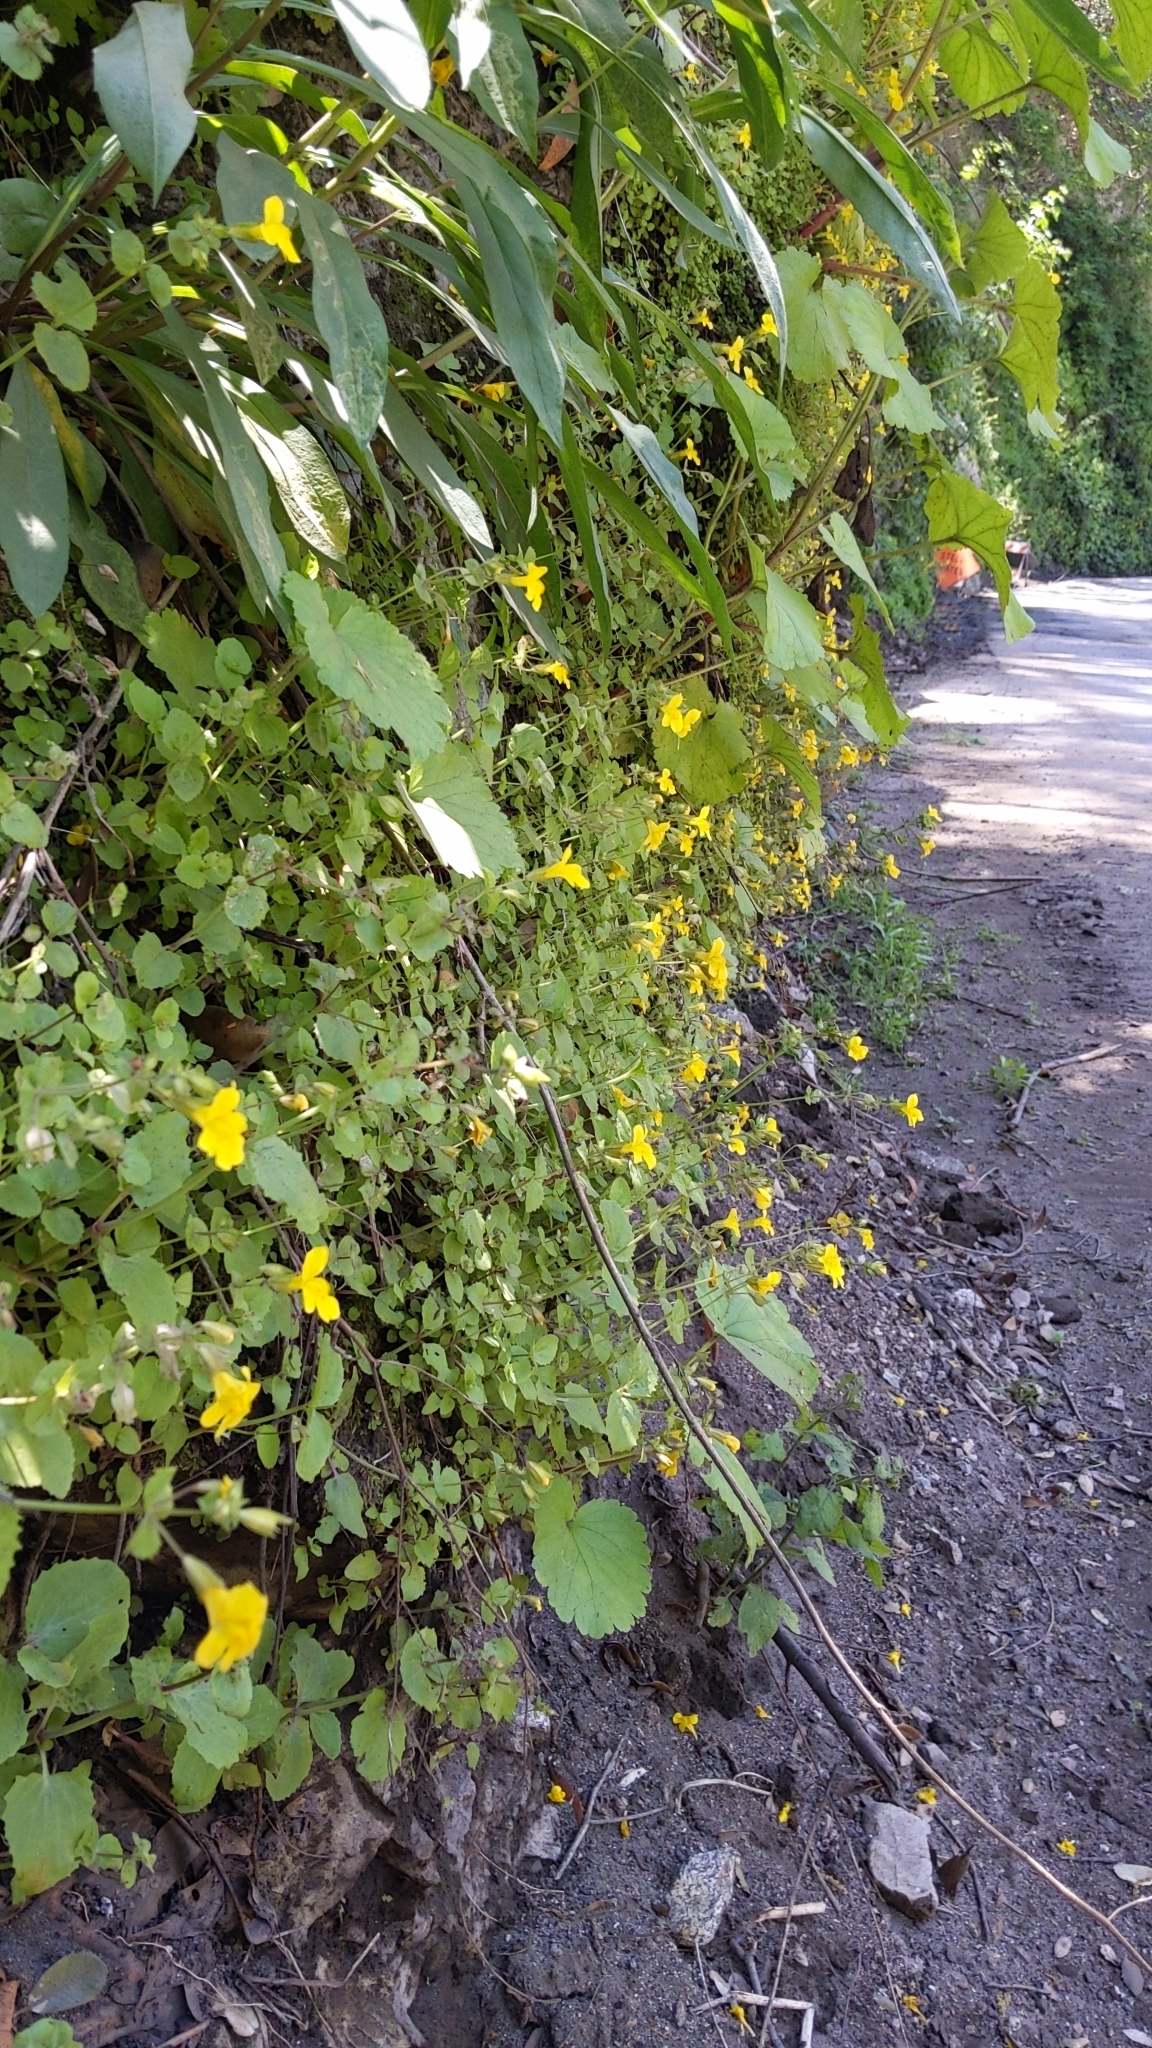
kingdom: Plantae
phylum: Tracheophyta
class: Magnoliopsida
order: Lamiales
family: Phrymaceae
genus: Erythranthe
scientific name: Erythranthe guttata
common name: Monkeyflower
